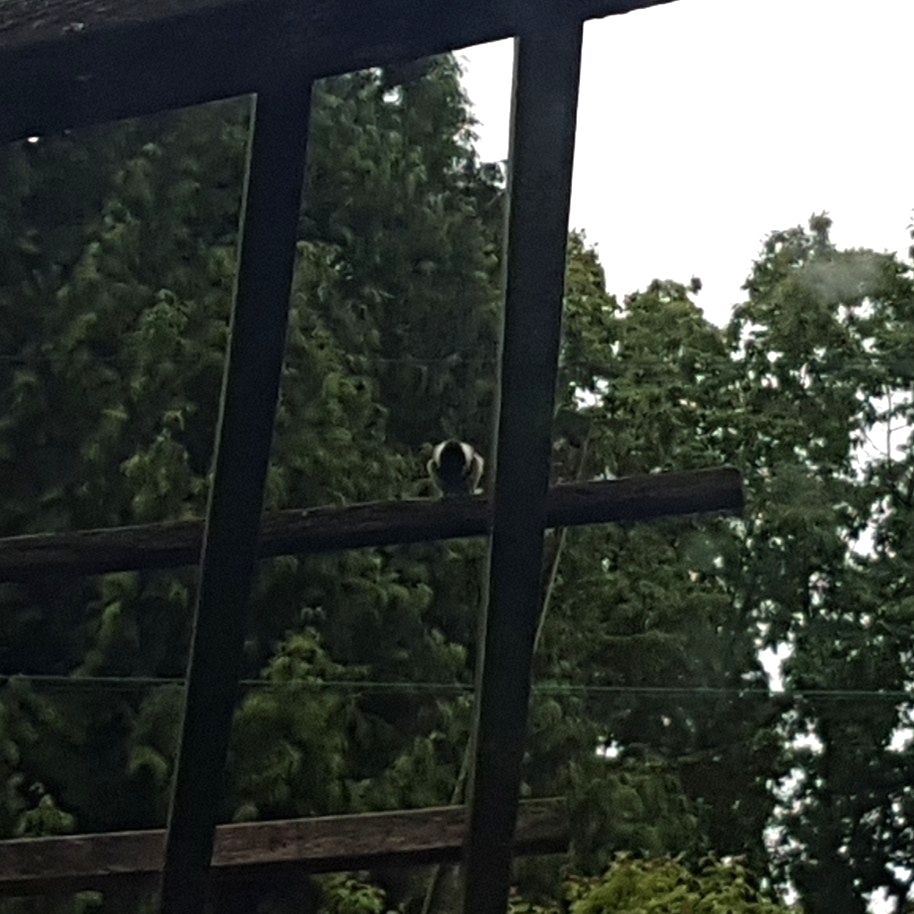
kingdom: Animalia
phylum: Chordata
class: Aves
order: Passeriformes
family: Paridae
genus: Poecile
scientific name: Poecile atricapillus
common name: Black-capped chickadee
